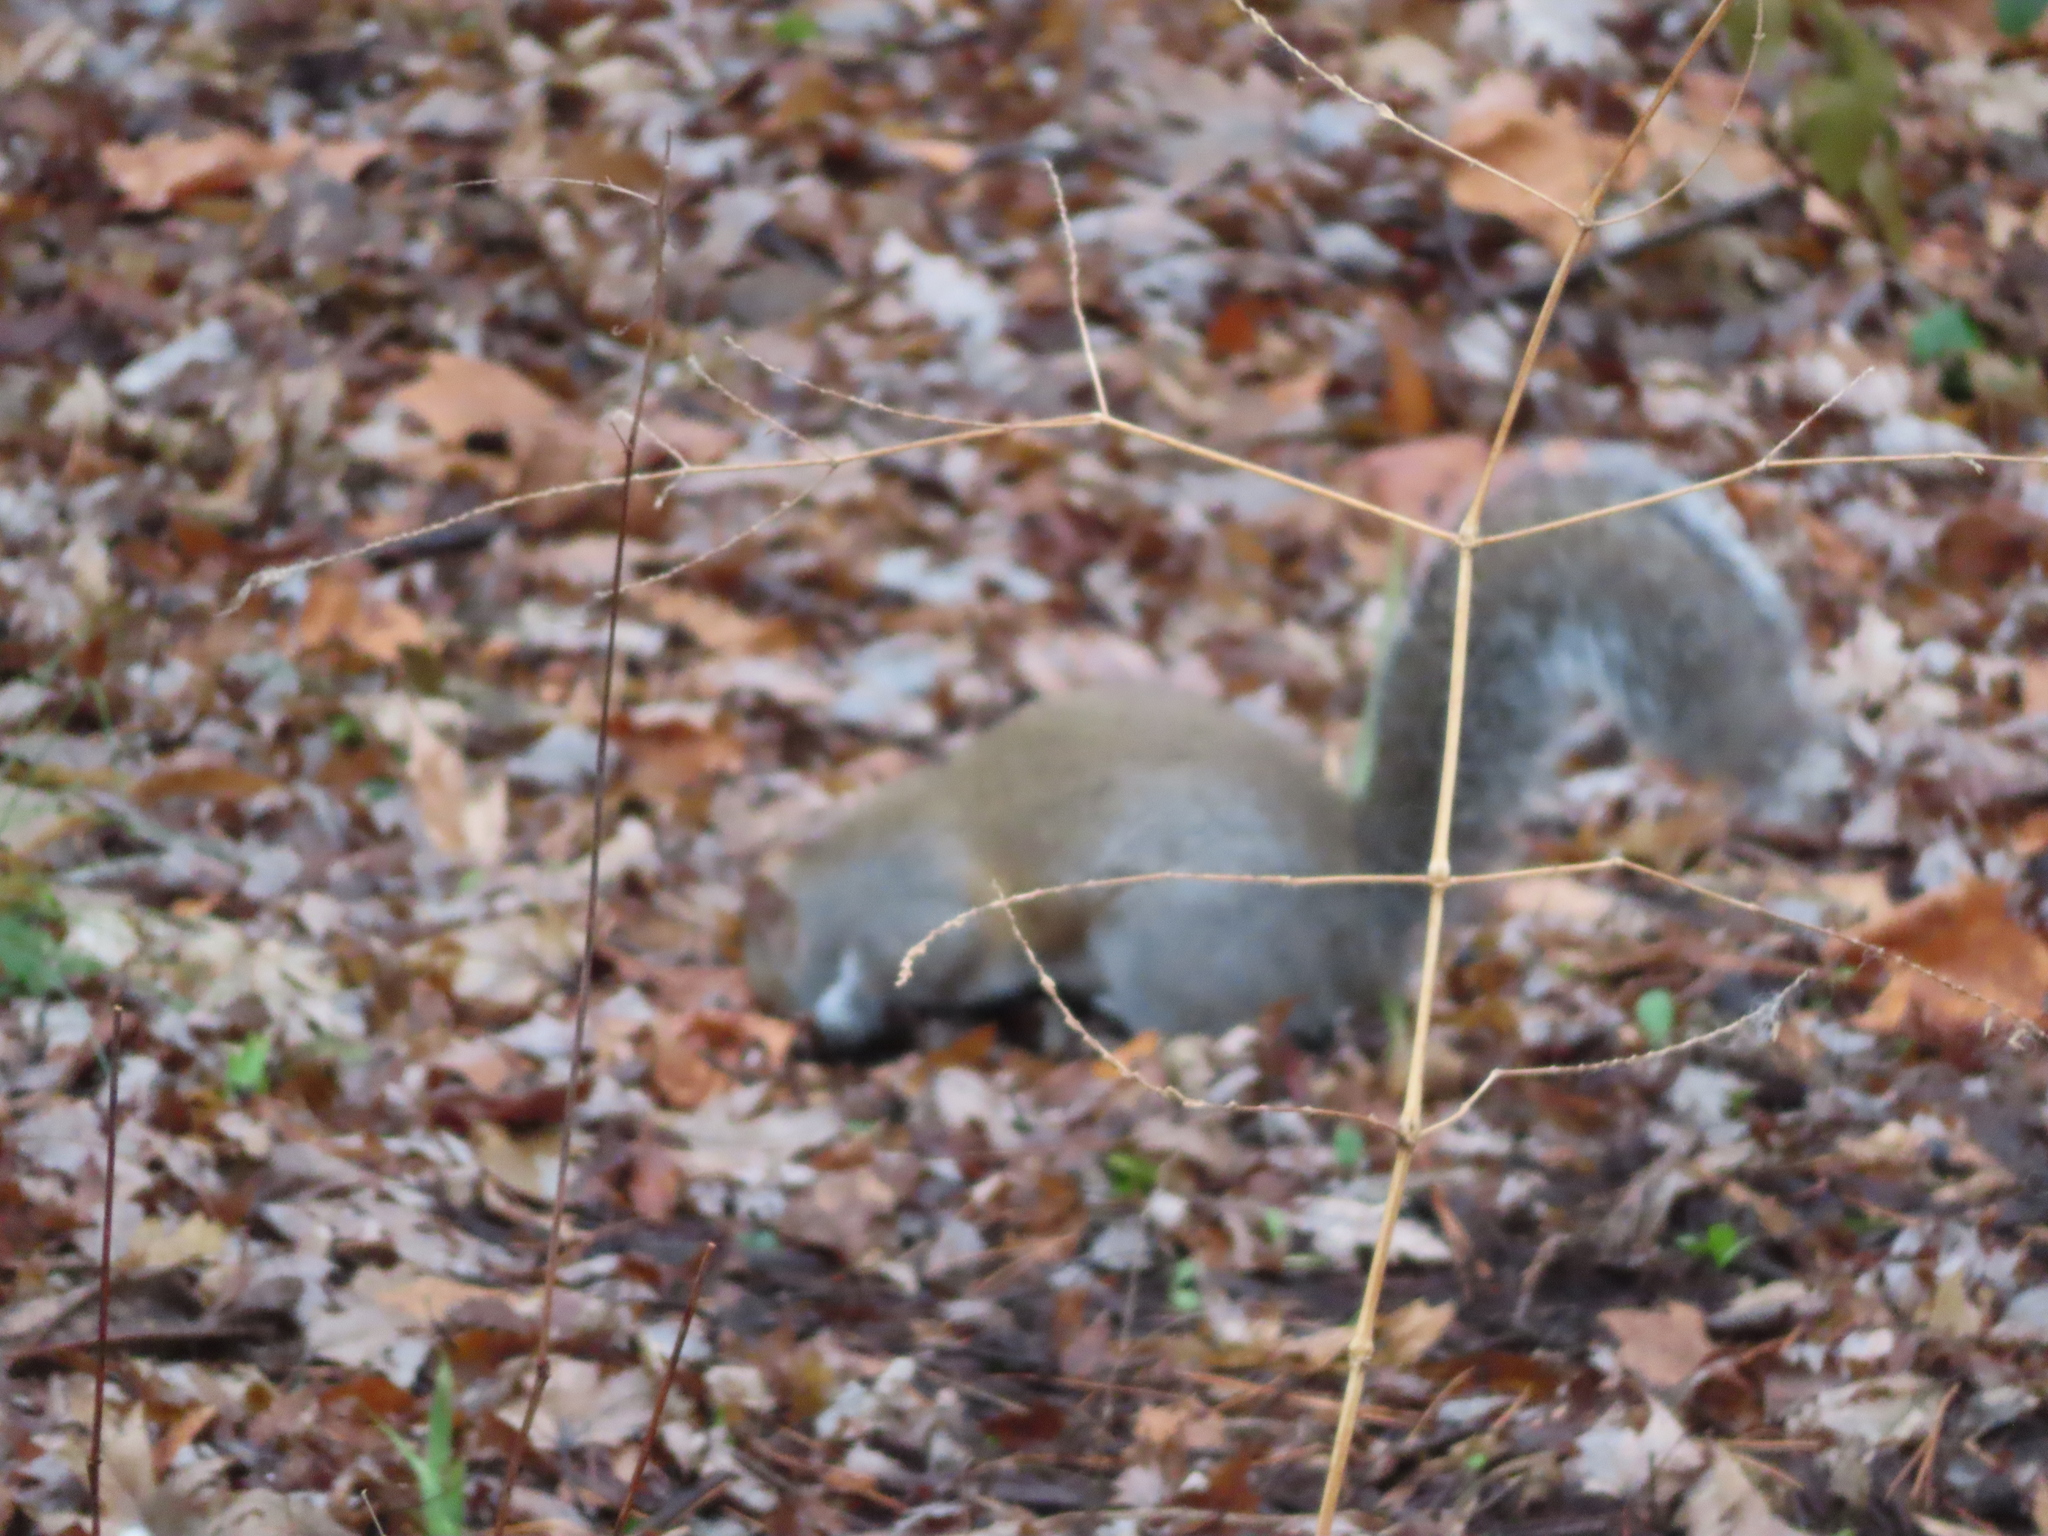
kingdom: Animalia
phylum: Chordata
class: Mammalia
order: Rodentia
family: Sciuridae
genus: Sciurus
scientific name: Sciurus carolinensis
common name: Eastern gray squirrel
